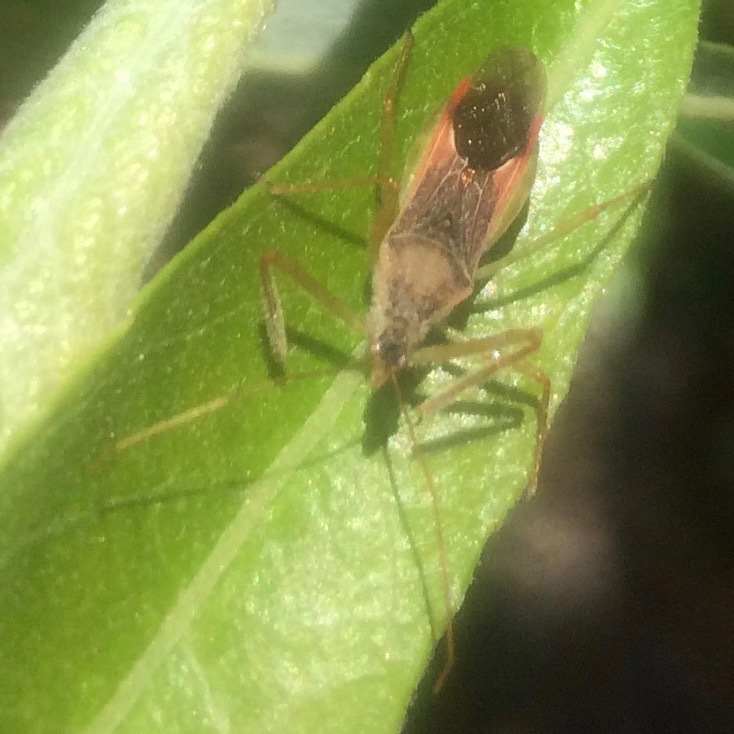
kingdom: Animalia
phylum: Arthropoda
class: Insecta
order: Hemiptera
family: Reduviidae
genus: Zelus
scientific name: Zelus renardii
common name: Assassin bug
